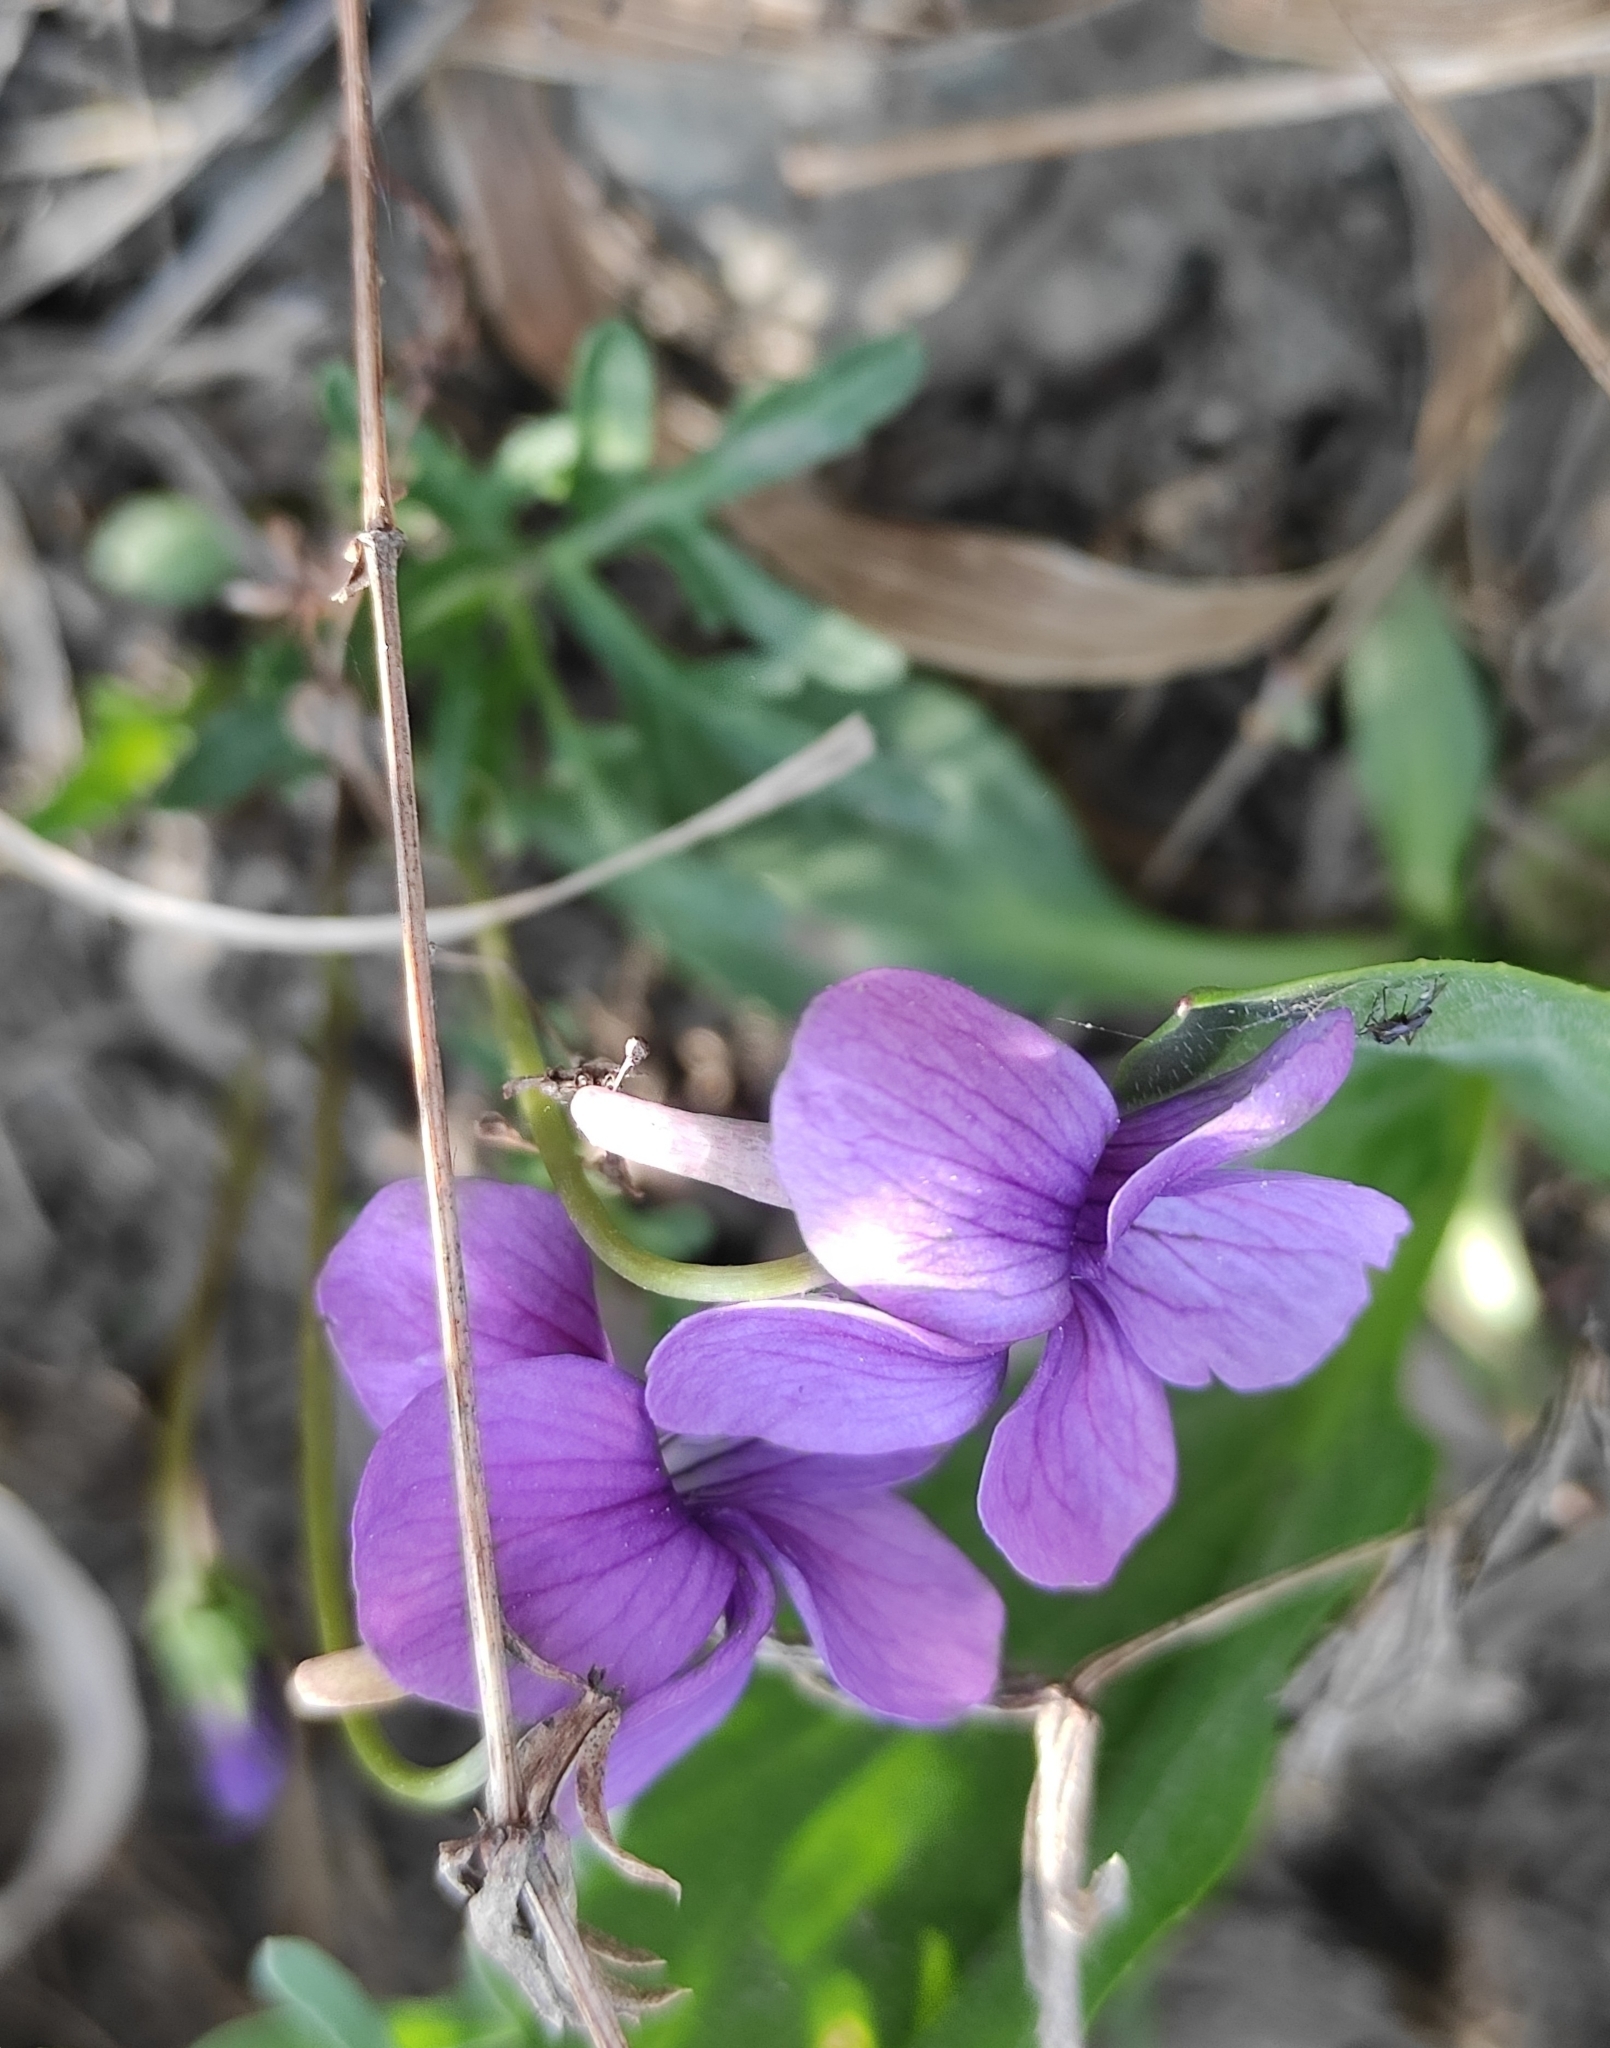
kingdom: Plantae
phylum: Tracheophyta
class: Magnoliopsida
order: Malpighiales
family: Violaceae
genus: Viola
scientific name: Viola multifida
